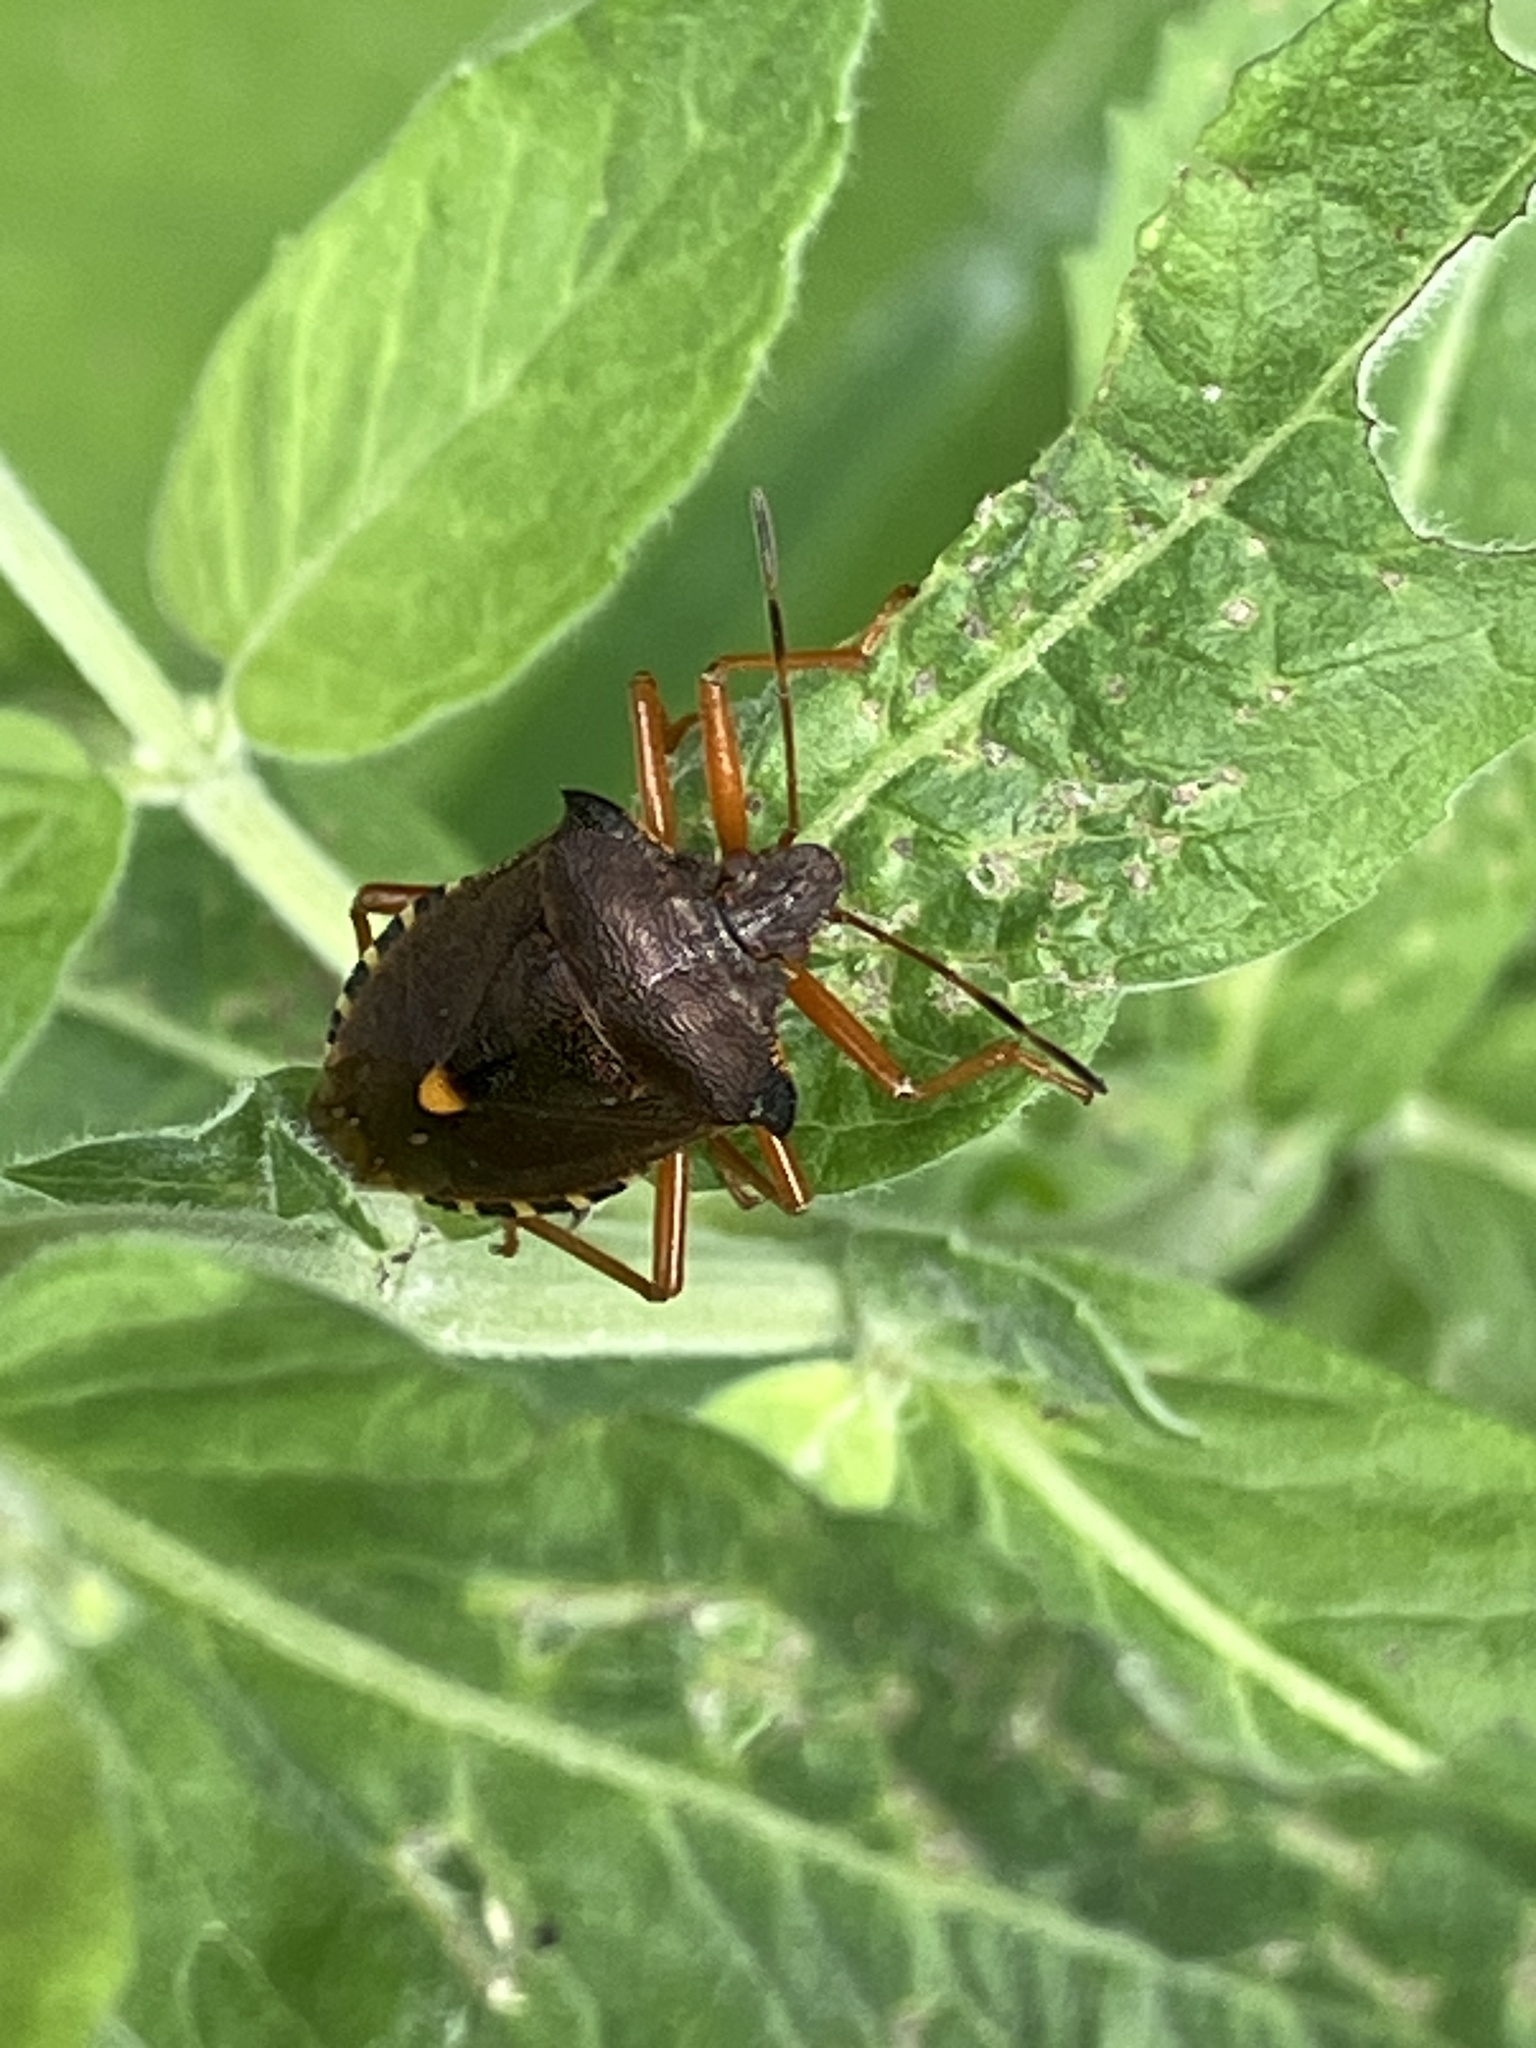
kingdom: Animalia
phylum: Arthropoda
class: Insecta
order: Hemiptera
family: Pentatomidae
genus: Pentatoma
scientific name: Pentatoma rufipes
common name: Forest bug
